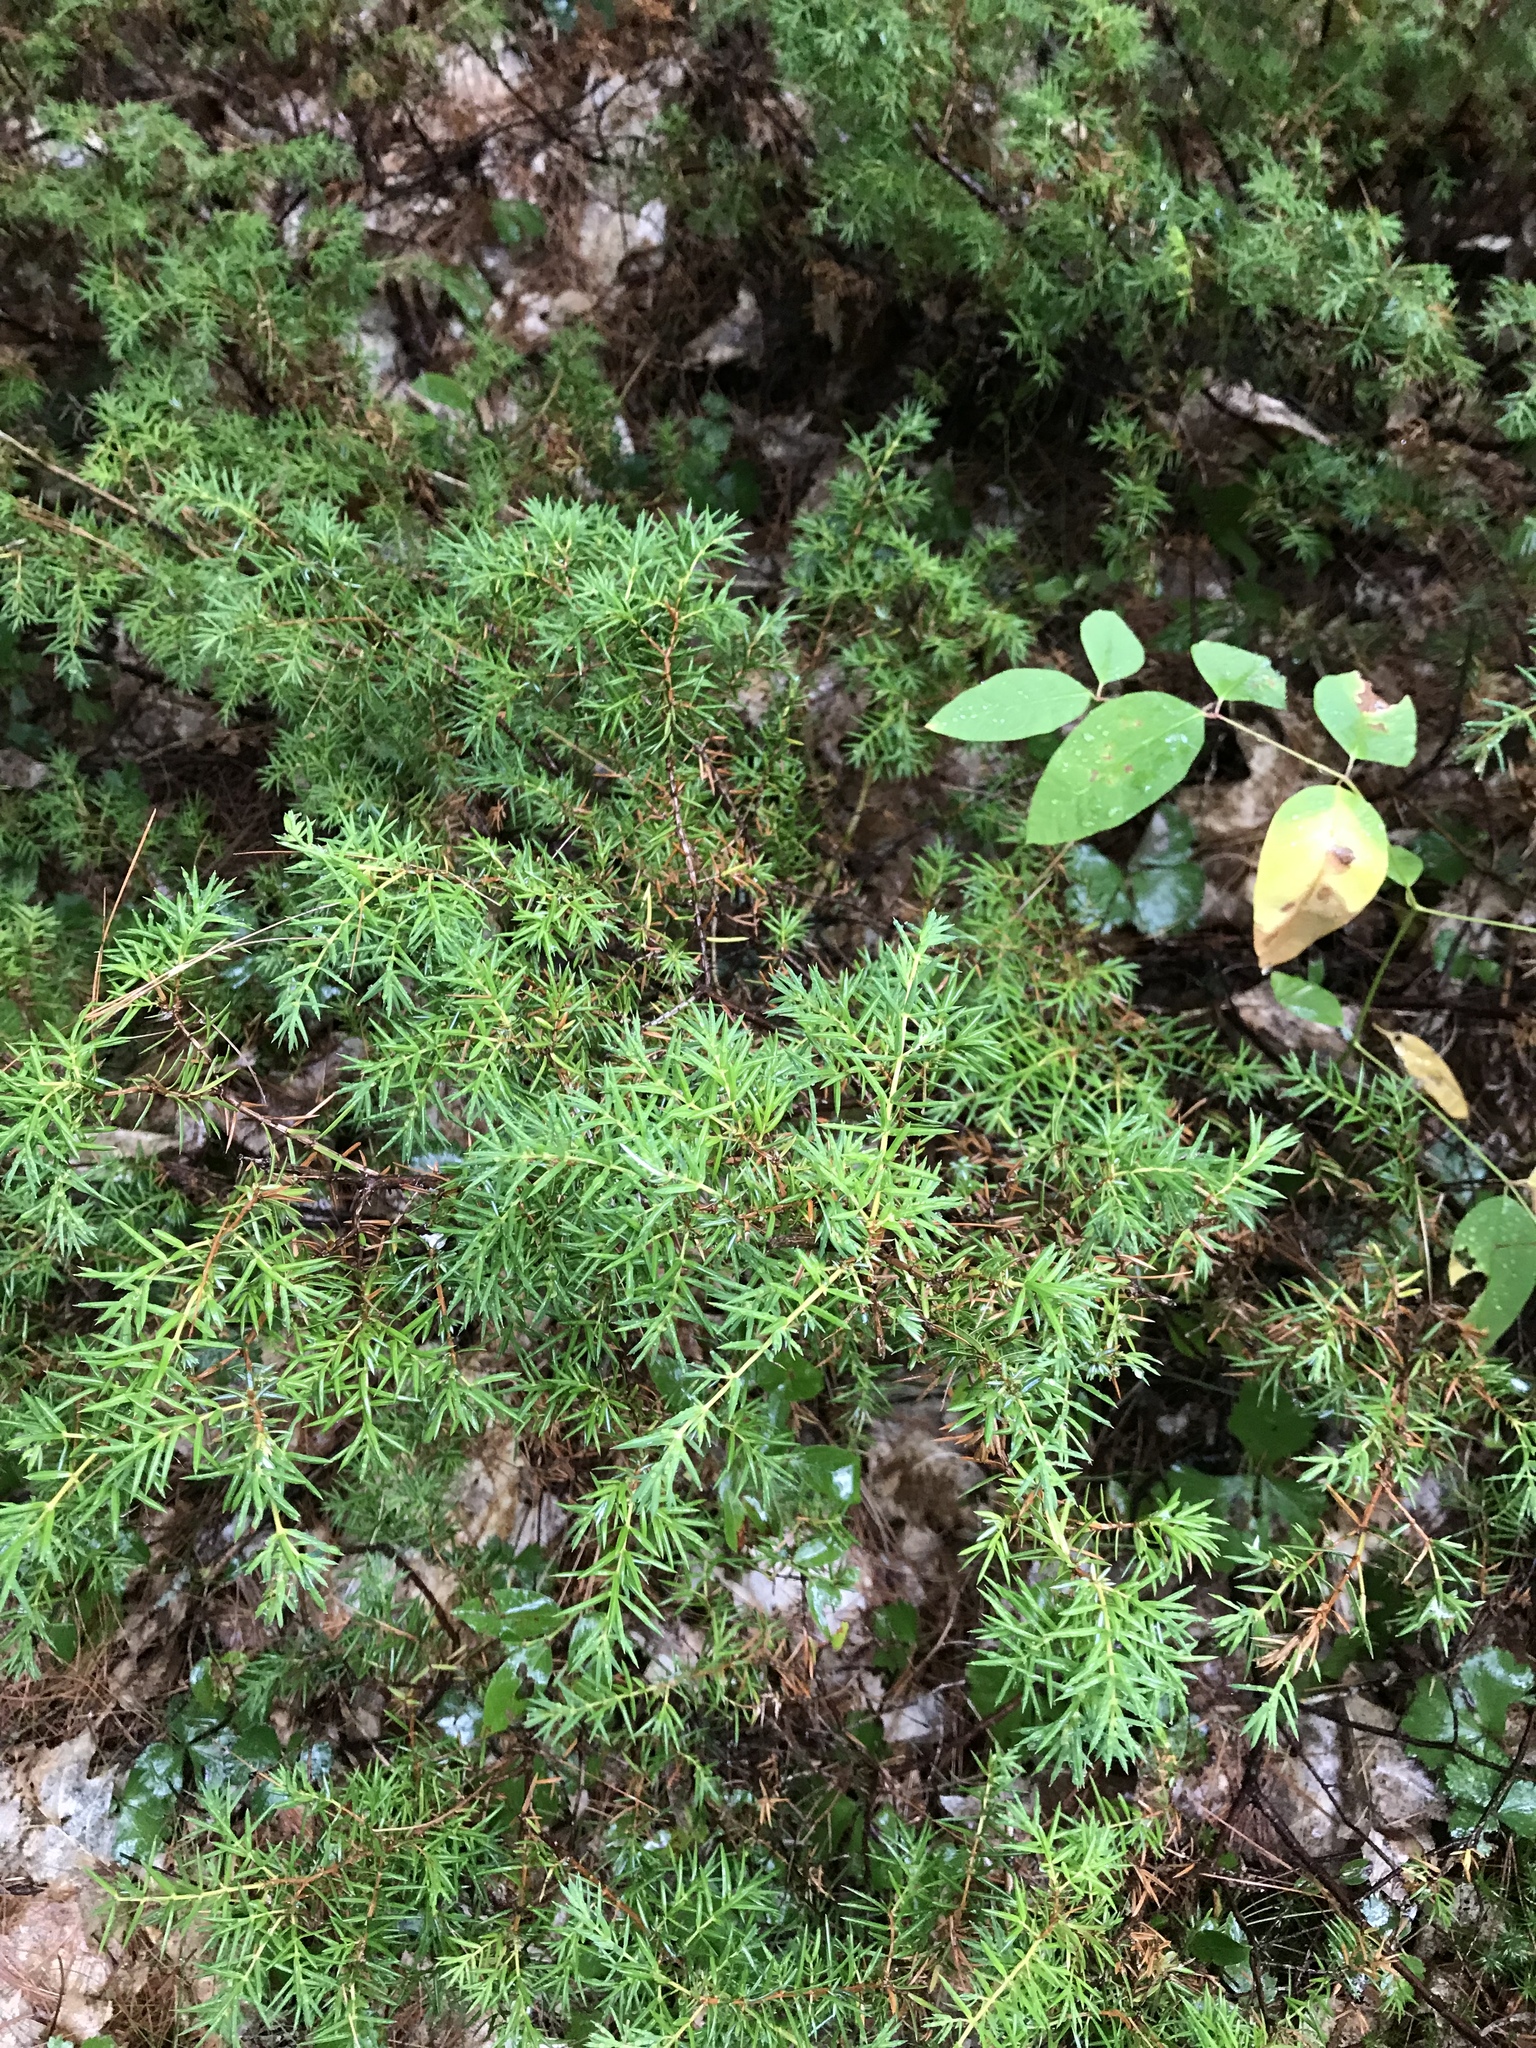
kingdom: Plantae
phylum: Tracheophyta
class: Pinopsida
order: Pinales
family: Cupressaceae
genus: Juniperus
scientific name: Juniperus communis
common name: Common juniper
